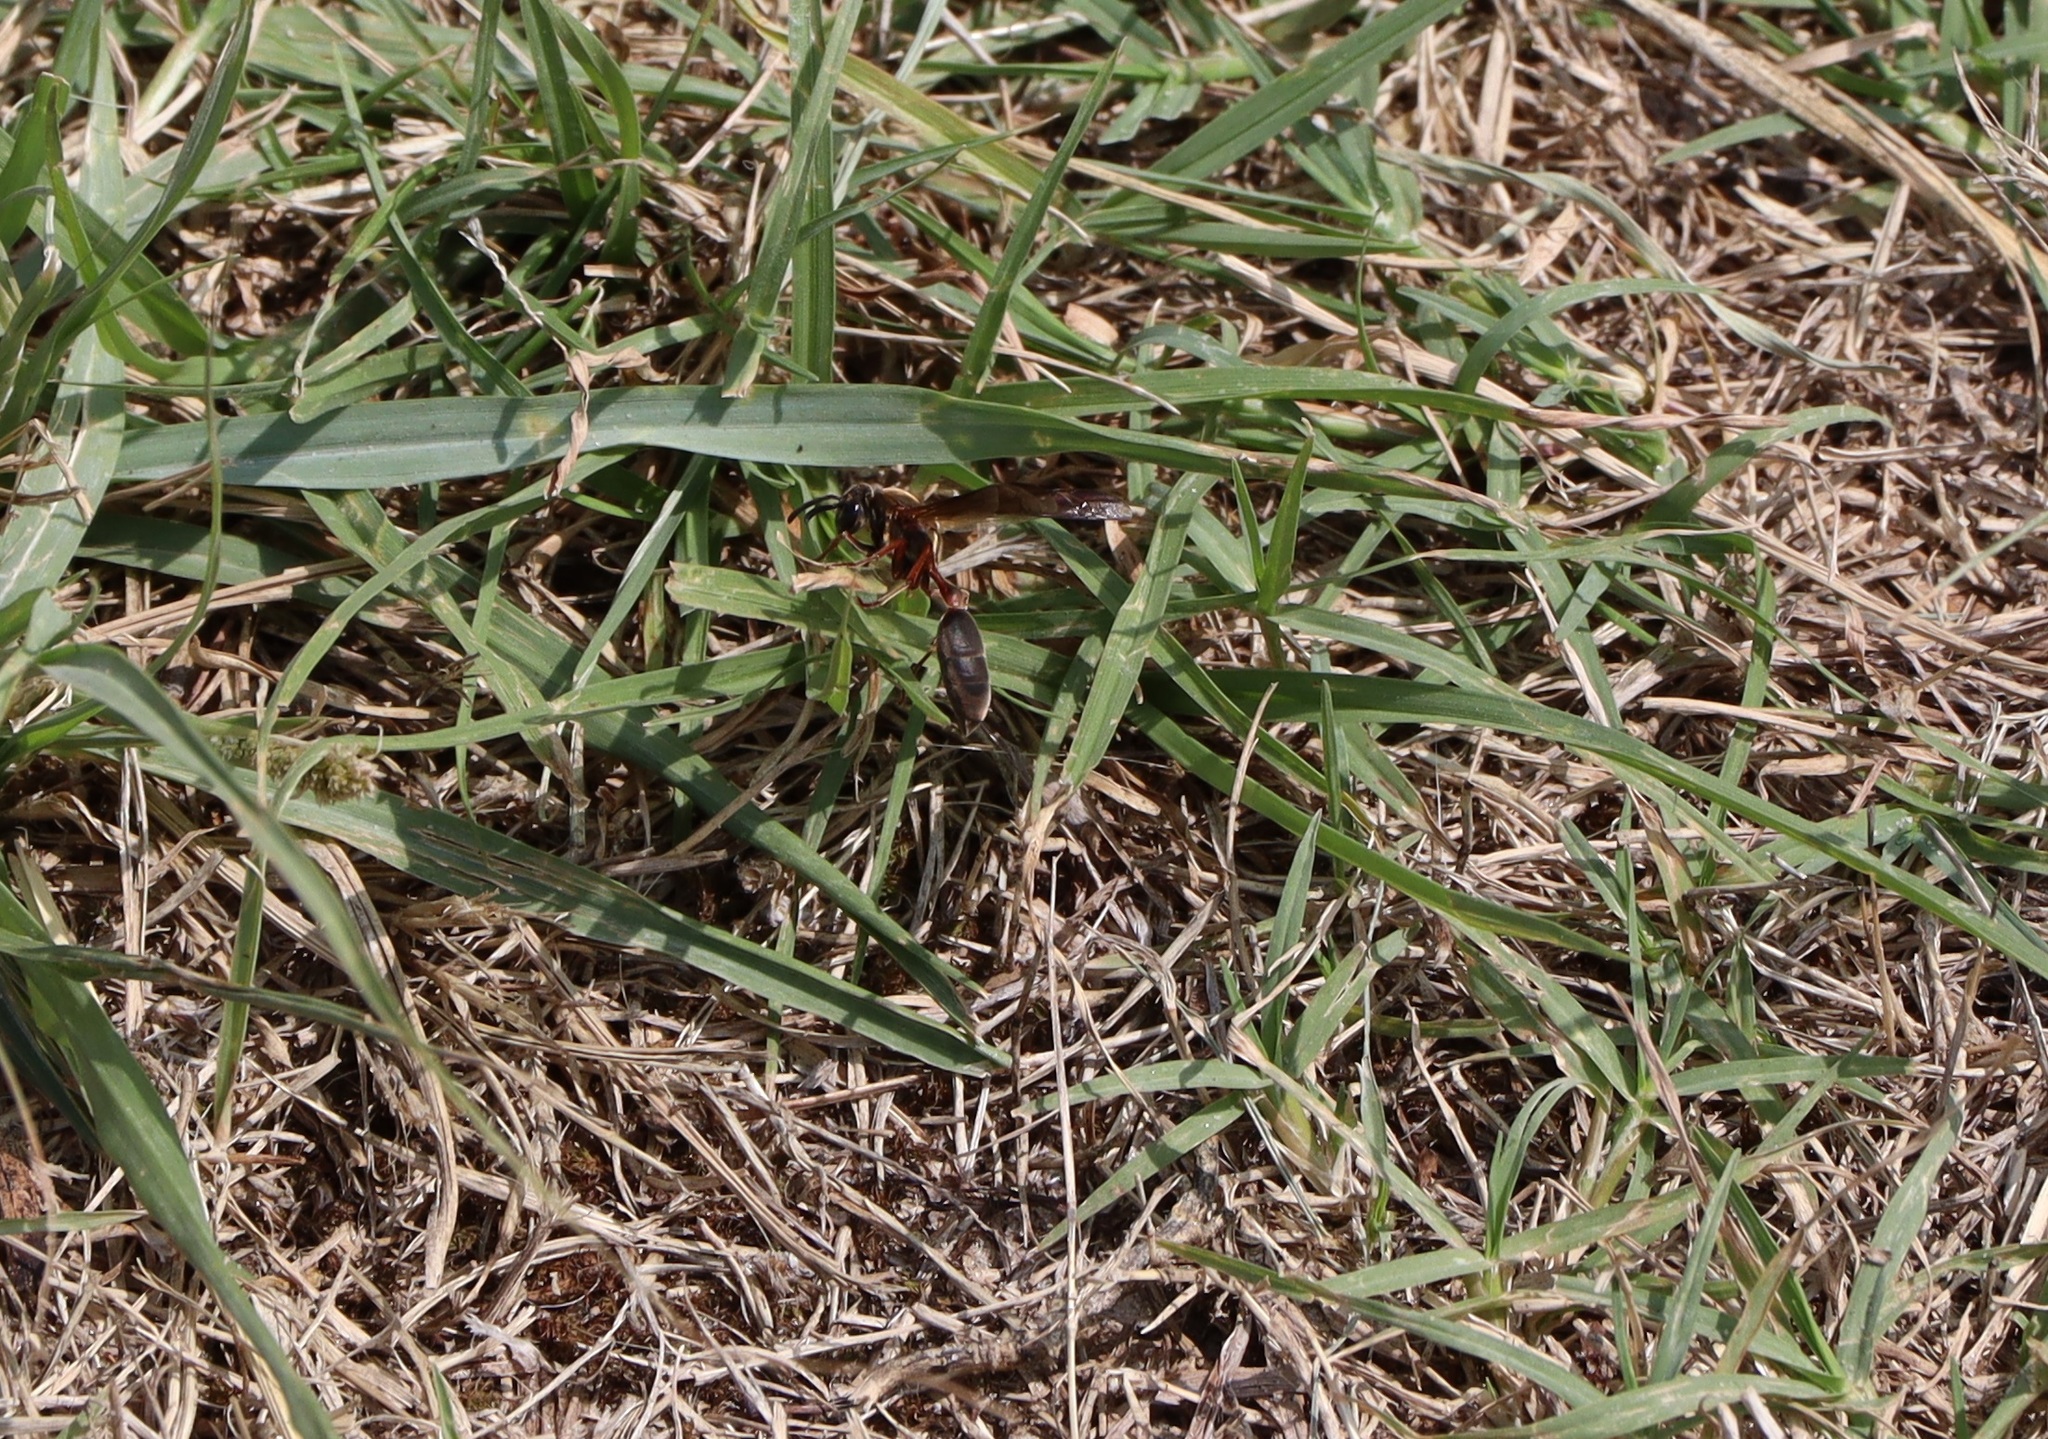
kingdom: Animalia
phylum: Arthropoda
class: Insecta
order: Hymenoptera
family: Eumenidae
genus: Polybia
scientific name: Polybia sericea
